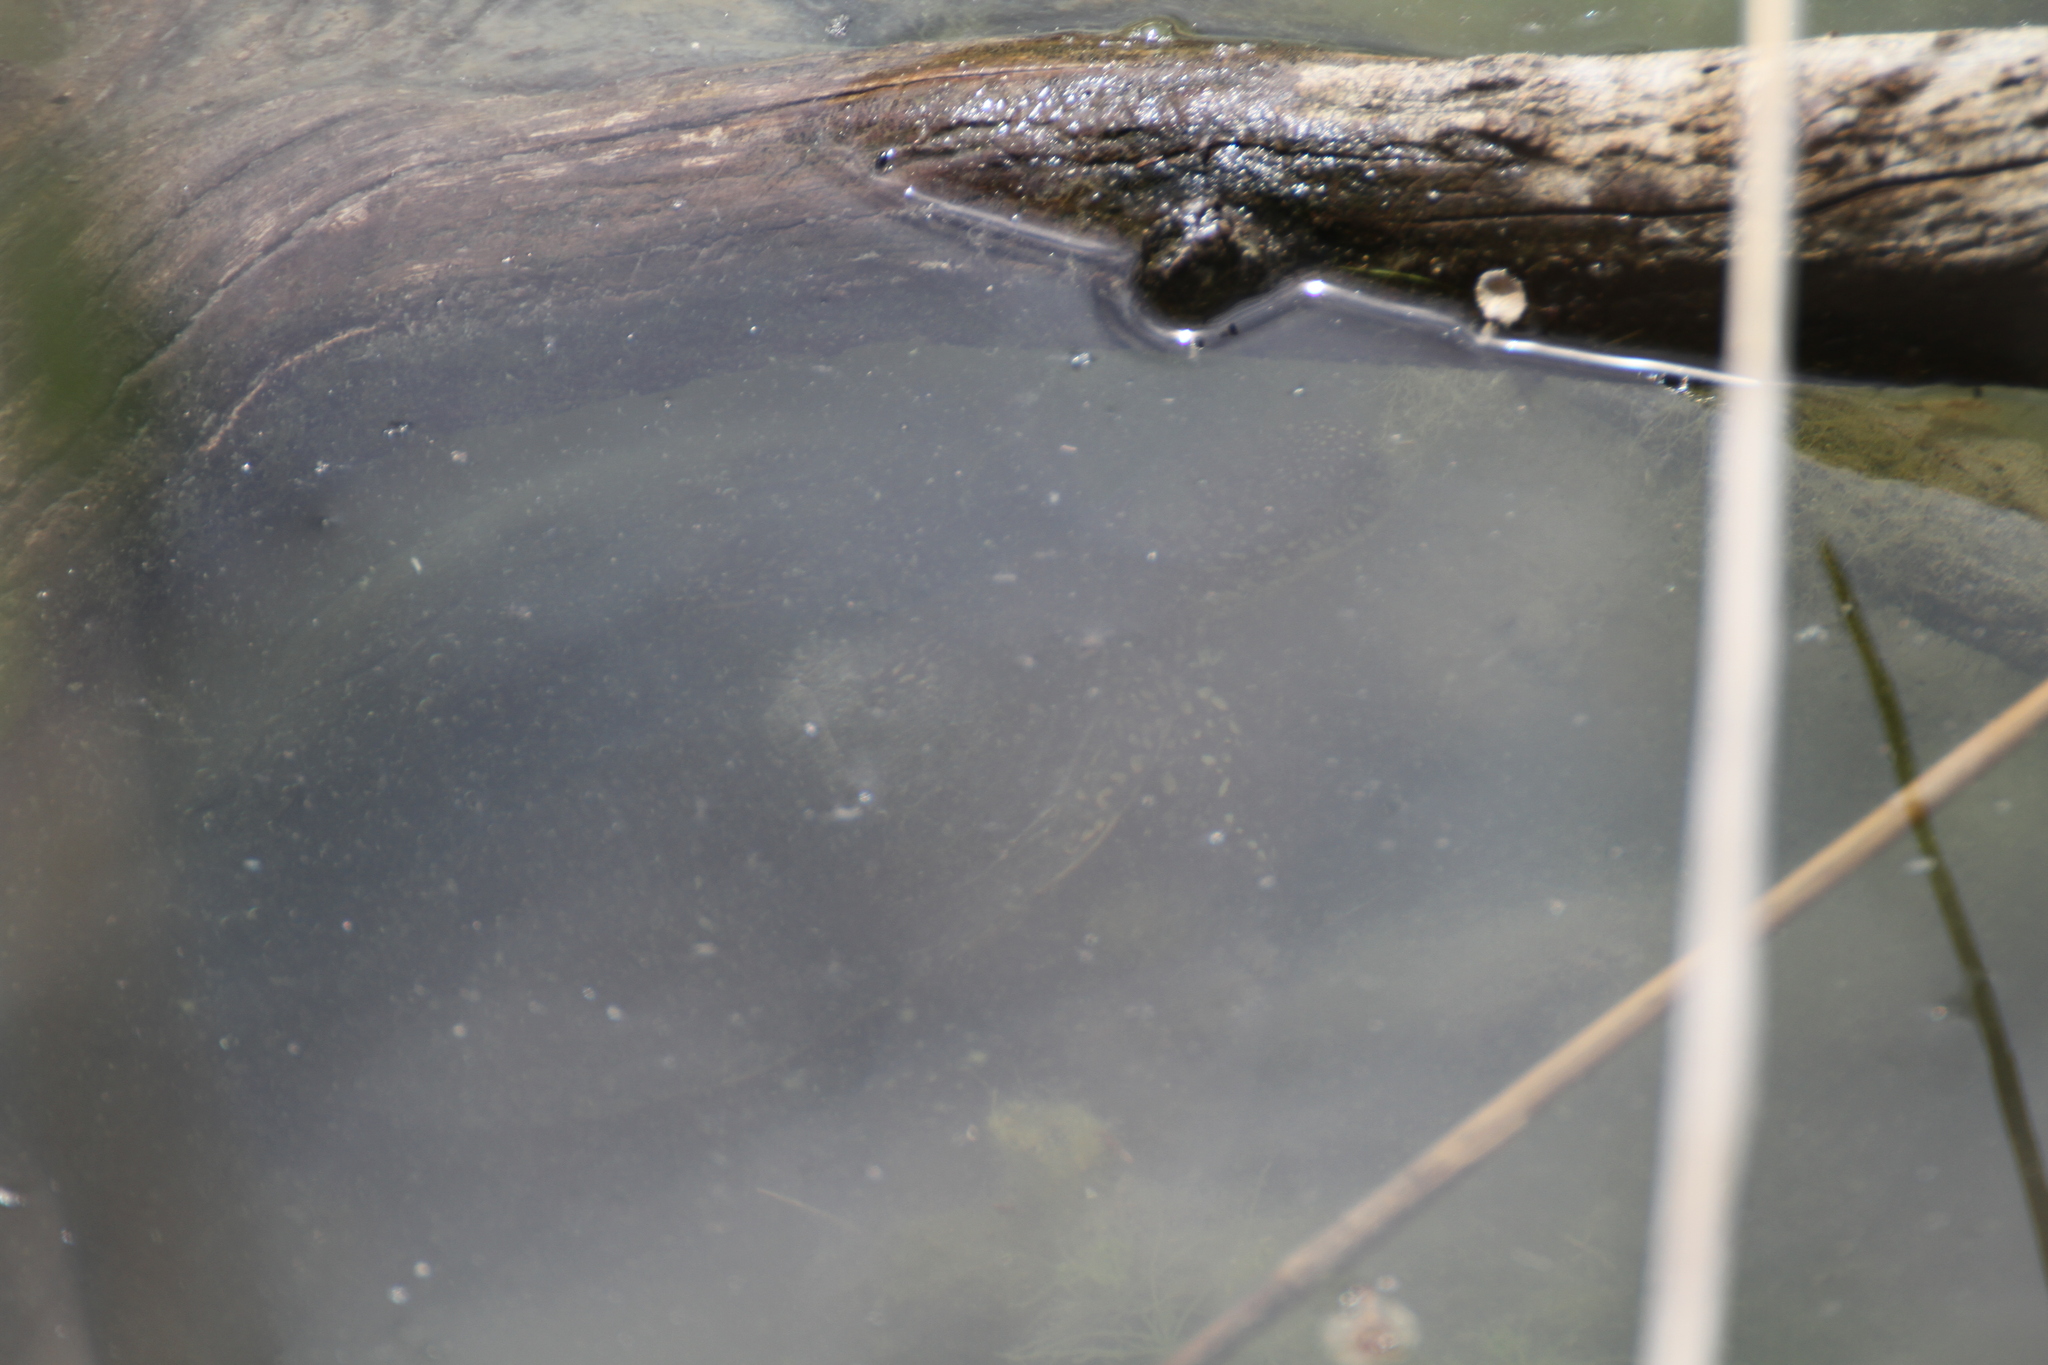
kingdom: Animalia
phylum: Chordata
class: Testudines
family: Emydidae
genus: Emys
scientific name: Emys orbicularis
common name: European pond turtle
